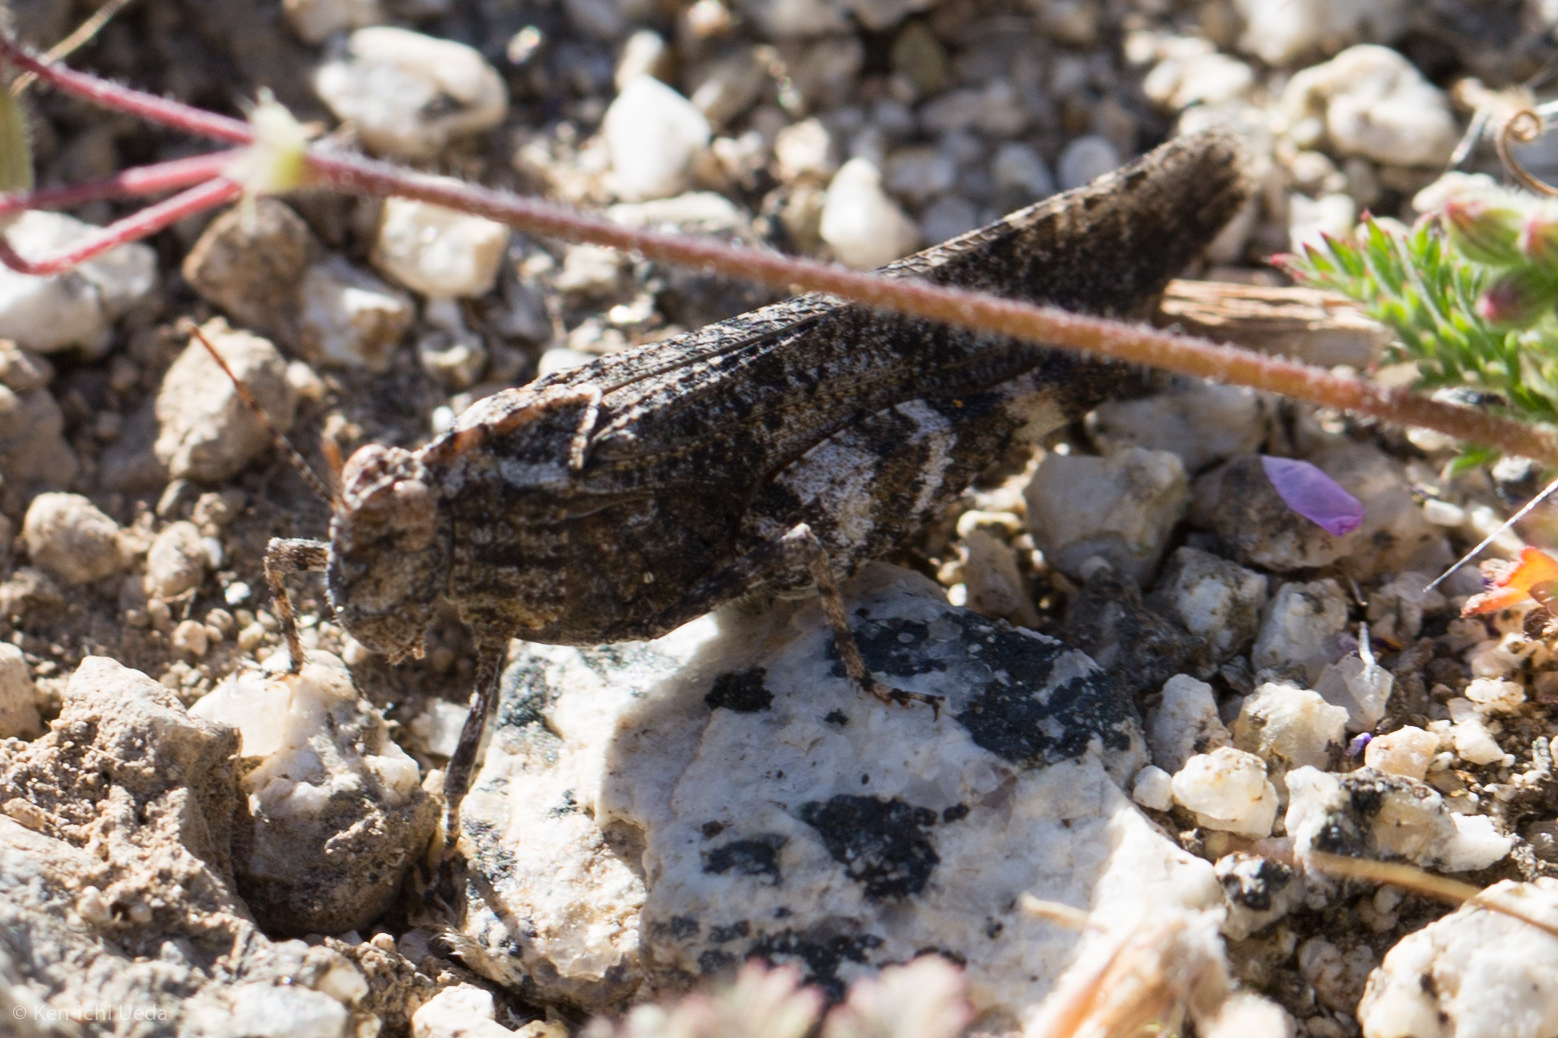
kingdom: Animalia
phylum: Arthropoda
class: Insecta
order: Orthoptera
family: Acrididae
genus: Lactista
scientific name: Lactista gibbosus
